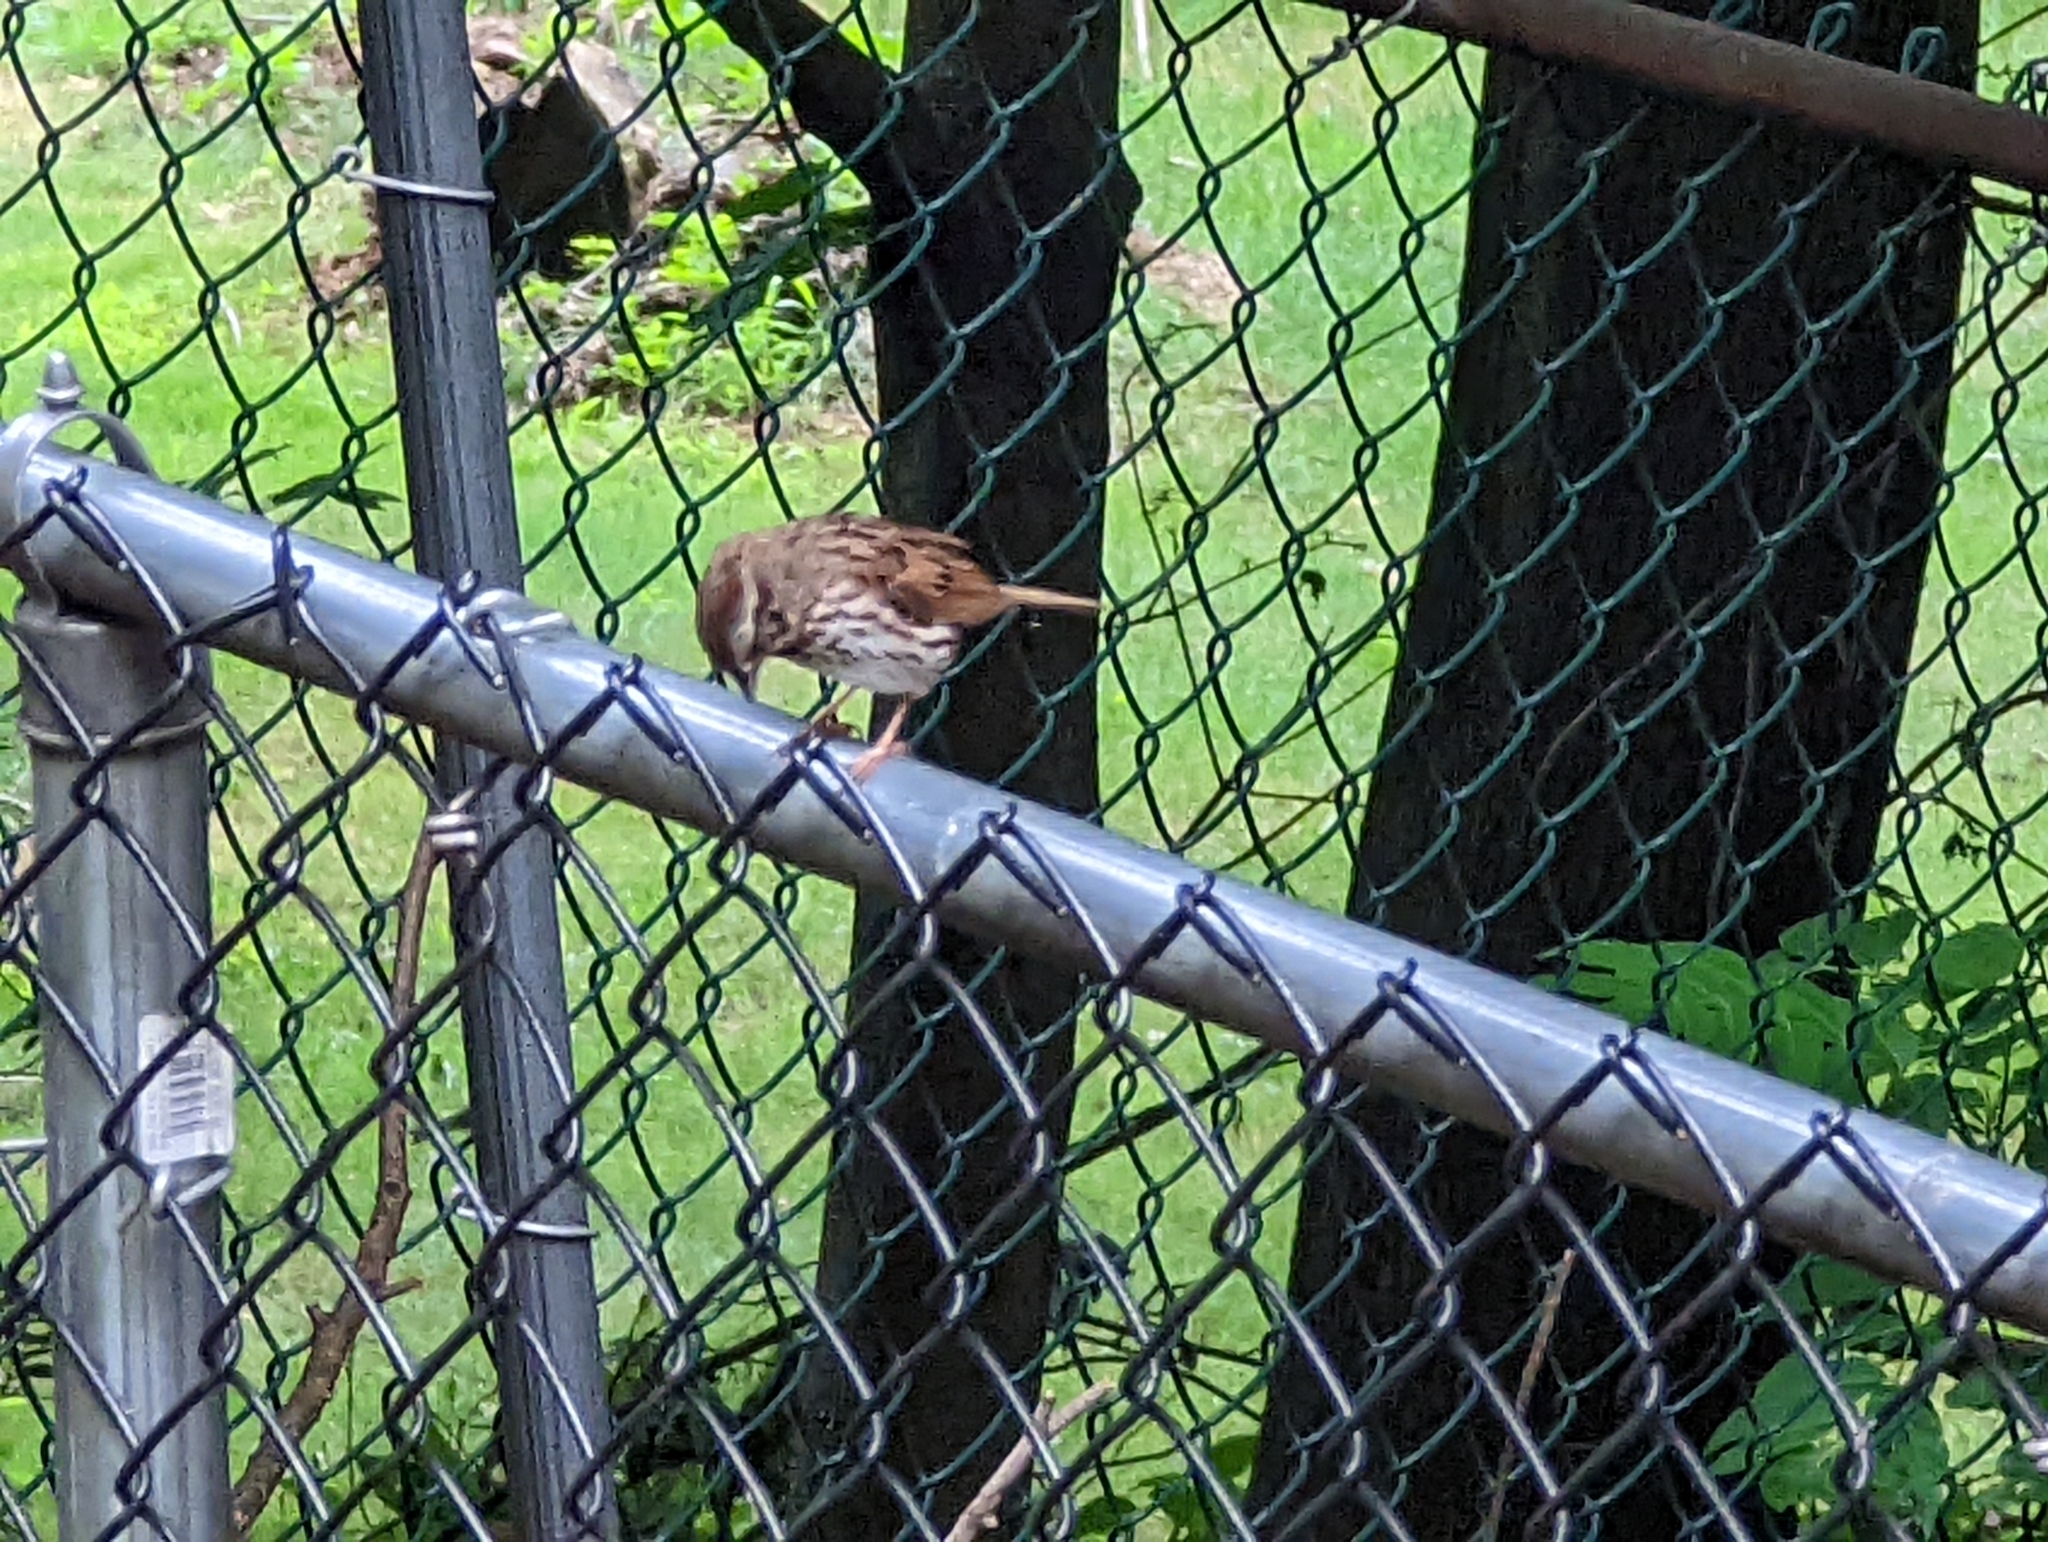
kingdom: Animalia
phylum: Chordata
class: Aves
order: Passeriformes
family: Passerellidae
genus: Melospiza
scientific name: Melospiza melodia
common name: Song sparrow
